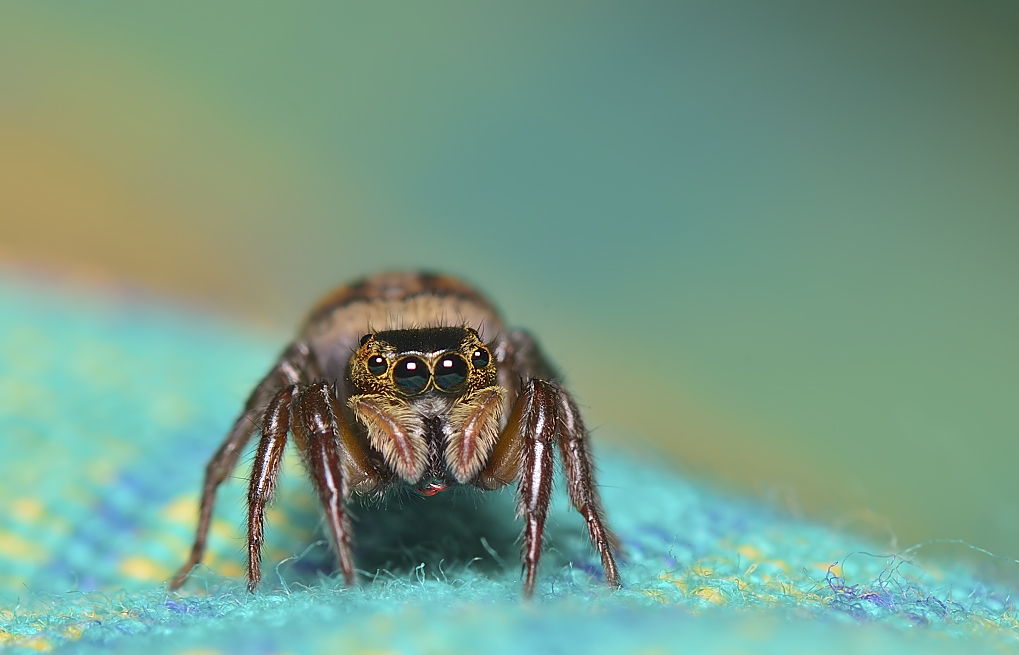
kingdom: Animalia
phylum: Arthropoda
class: Arachnida
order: Araneae
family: Salticidae
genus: Hasarius
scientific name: Hasarius adansoni
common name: Jumping spider
